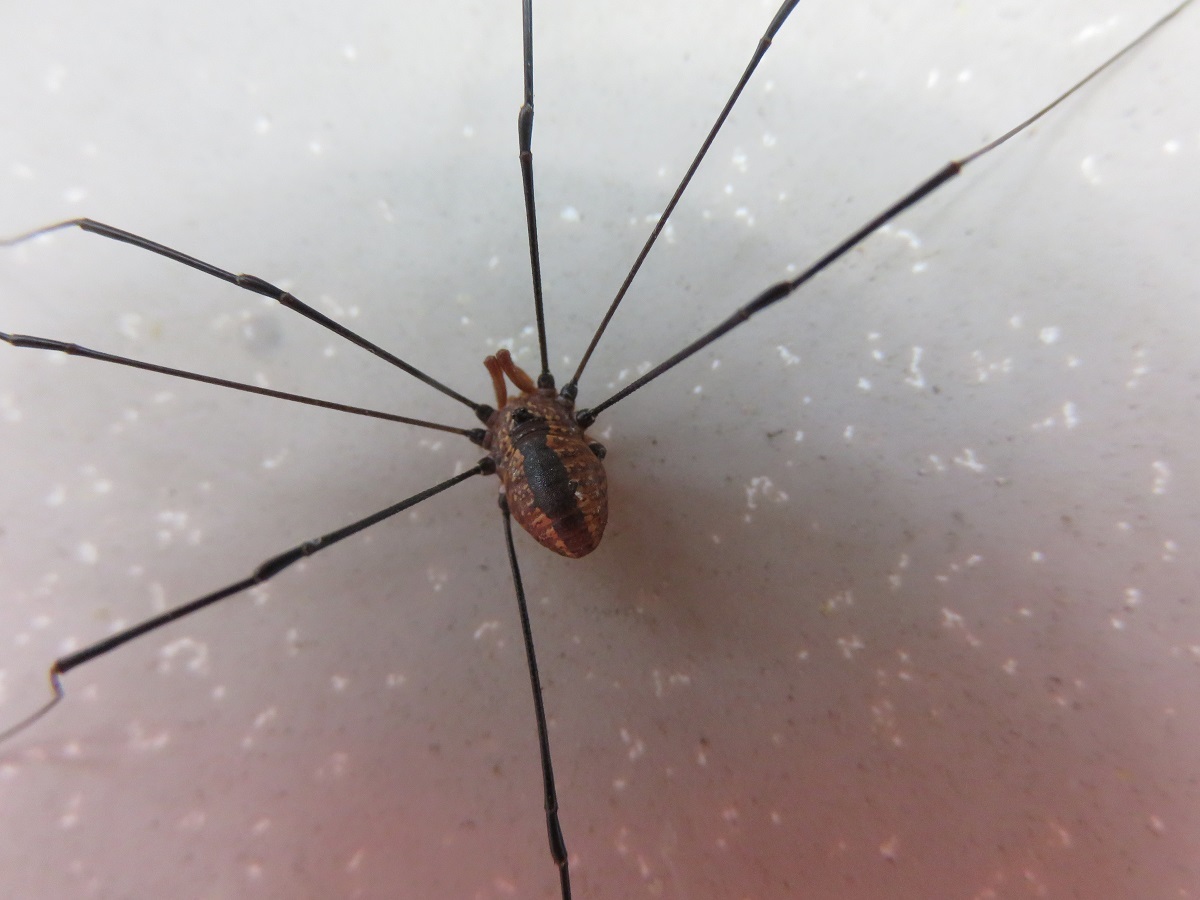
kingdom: Animalia
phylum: Arthropoda
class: Arachnida
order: Opiliones
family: Sclerosomatidae
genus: Leiobunum
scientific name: Leiobunum vittatum
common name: Eastern harvestman
